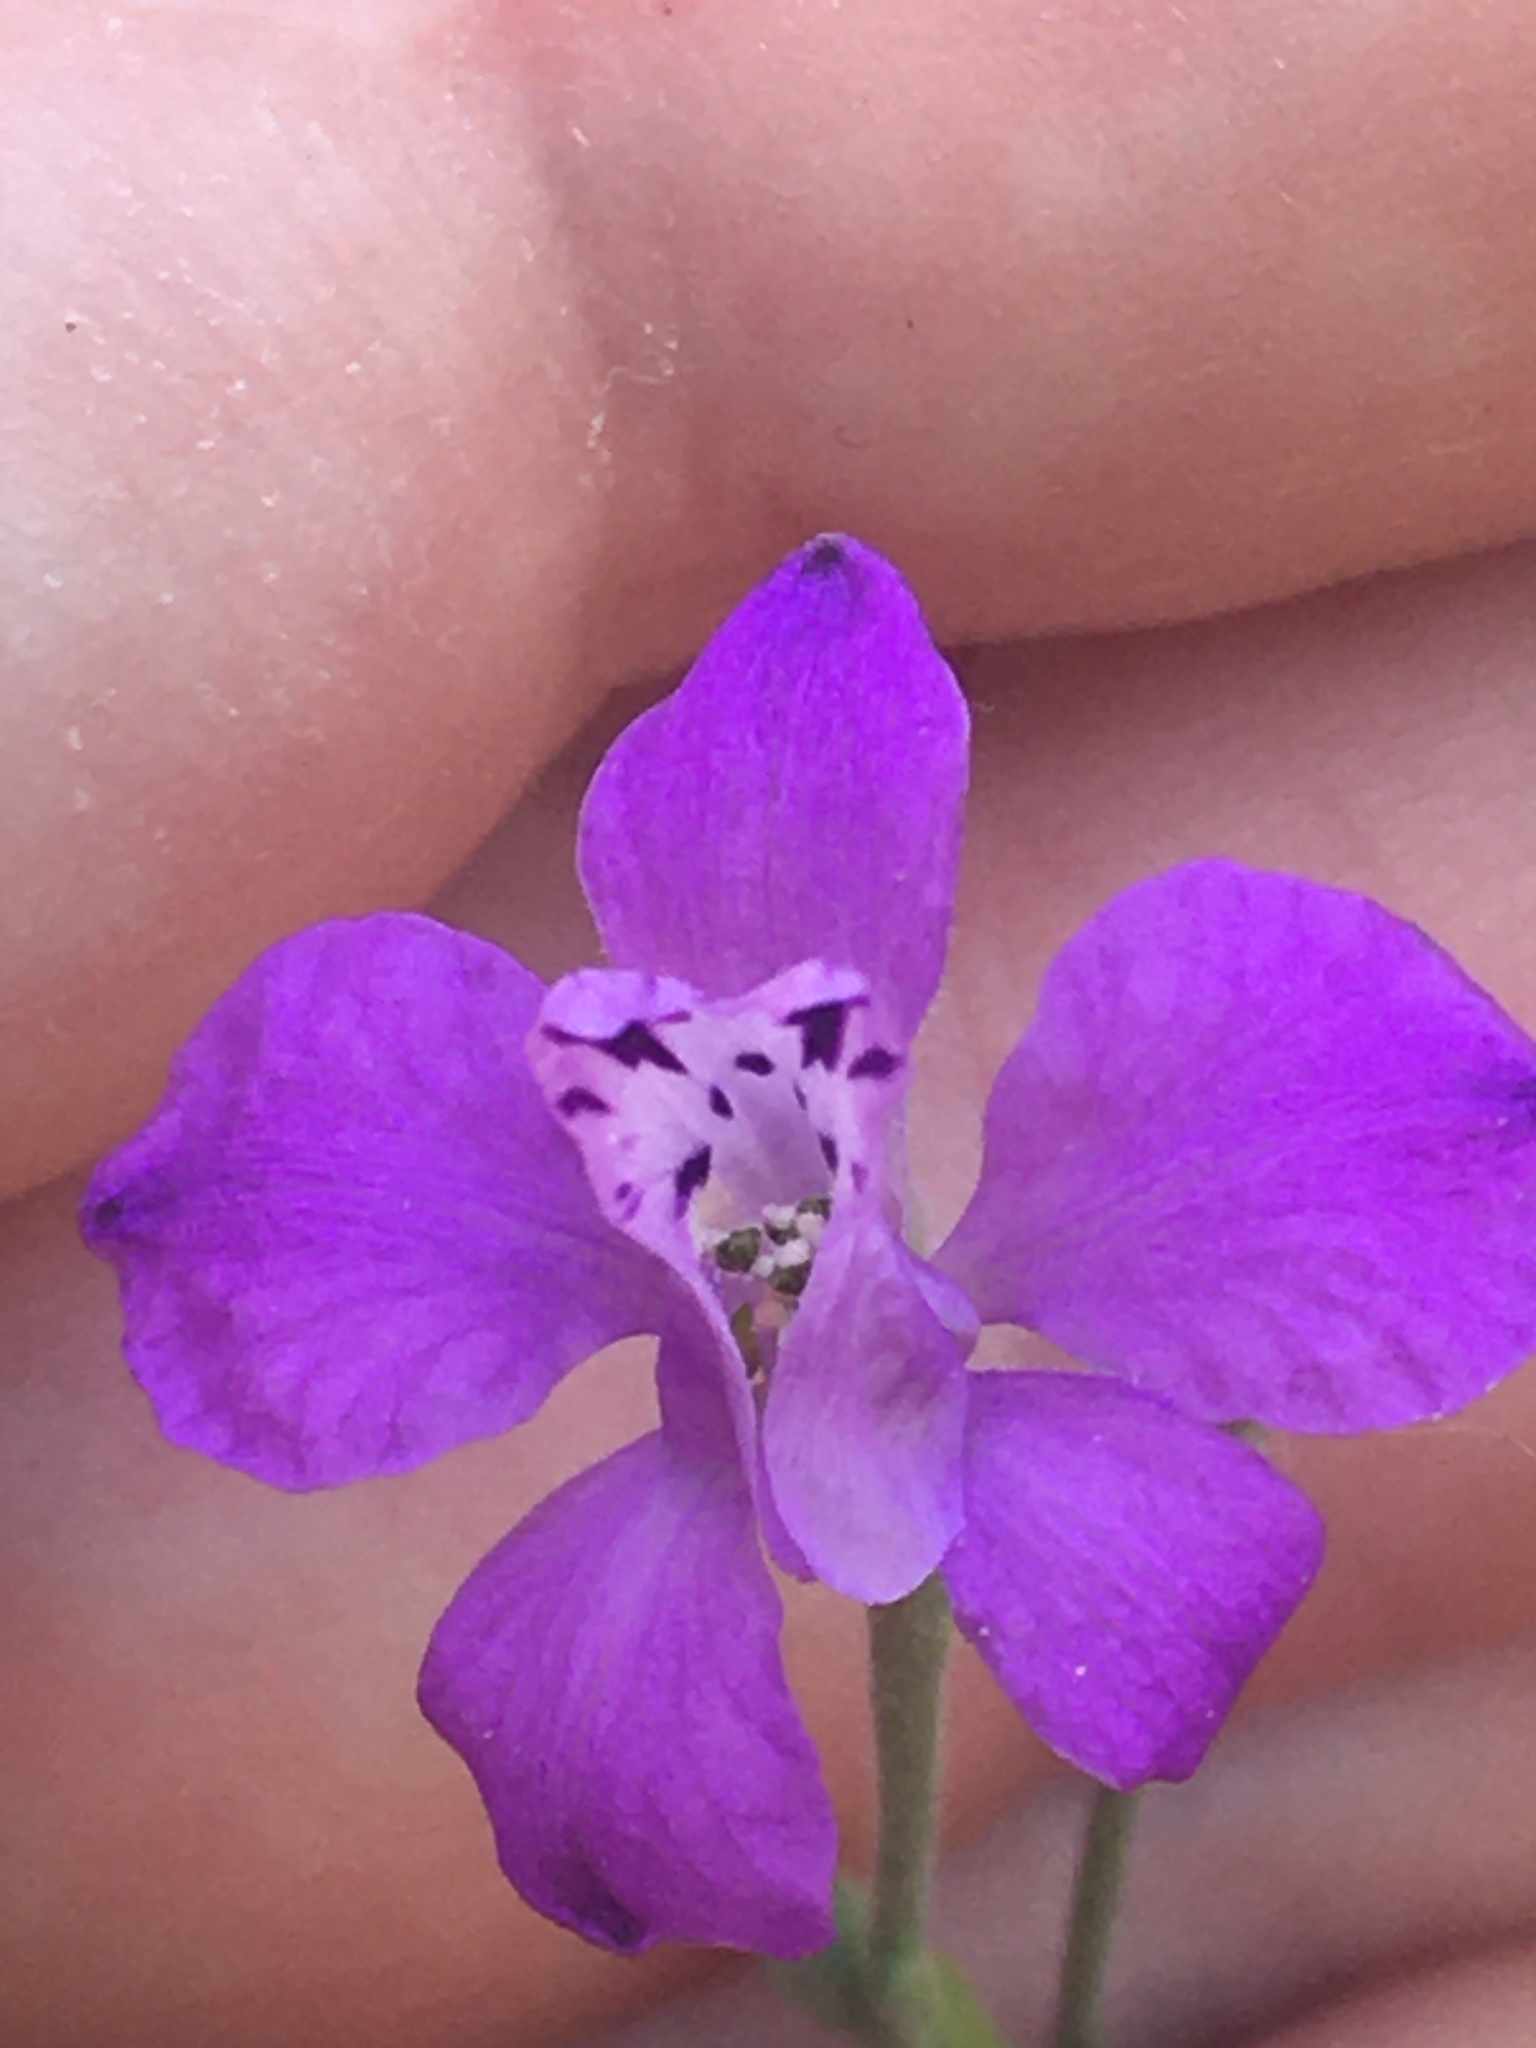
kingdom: Plantae
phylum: Tracheophyta
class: Magnoliopsida
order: Ranunculales
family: Ranunculaceae
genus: Delphinium
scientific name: Delphinium consolida
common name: Branching larkspur
